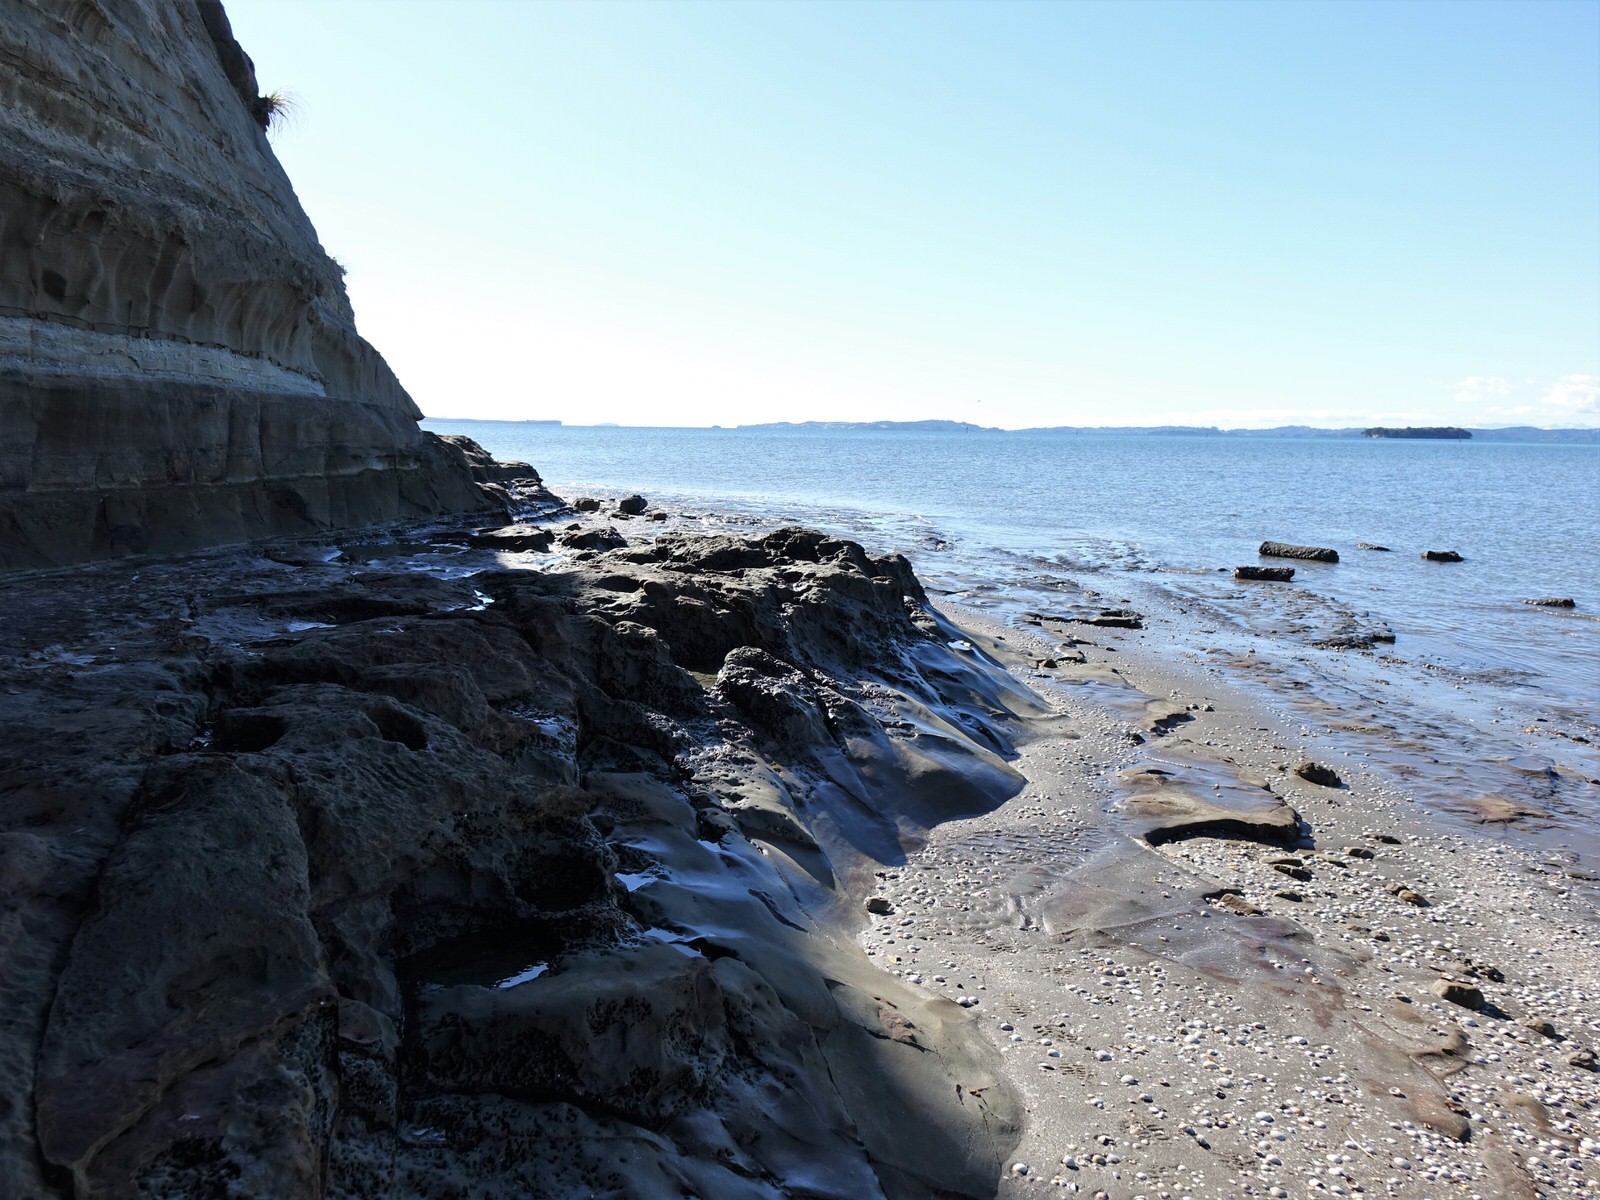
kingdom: Animalia
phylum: Mollusca
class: Polyplacophora
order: Chitonida
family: Chitonidae
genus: Sypharochiton
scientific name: Sypharochiton pelliserpentis
